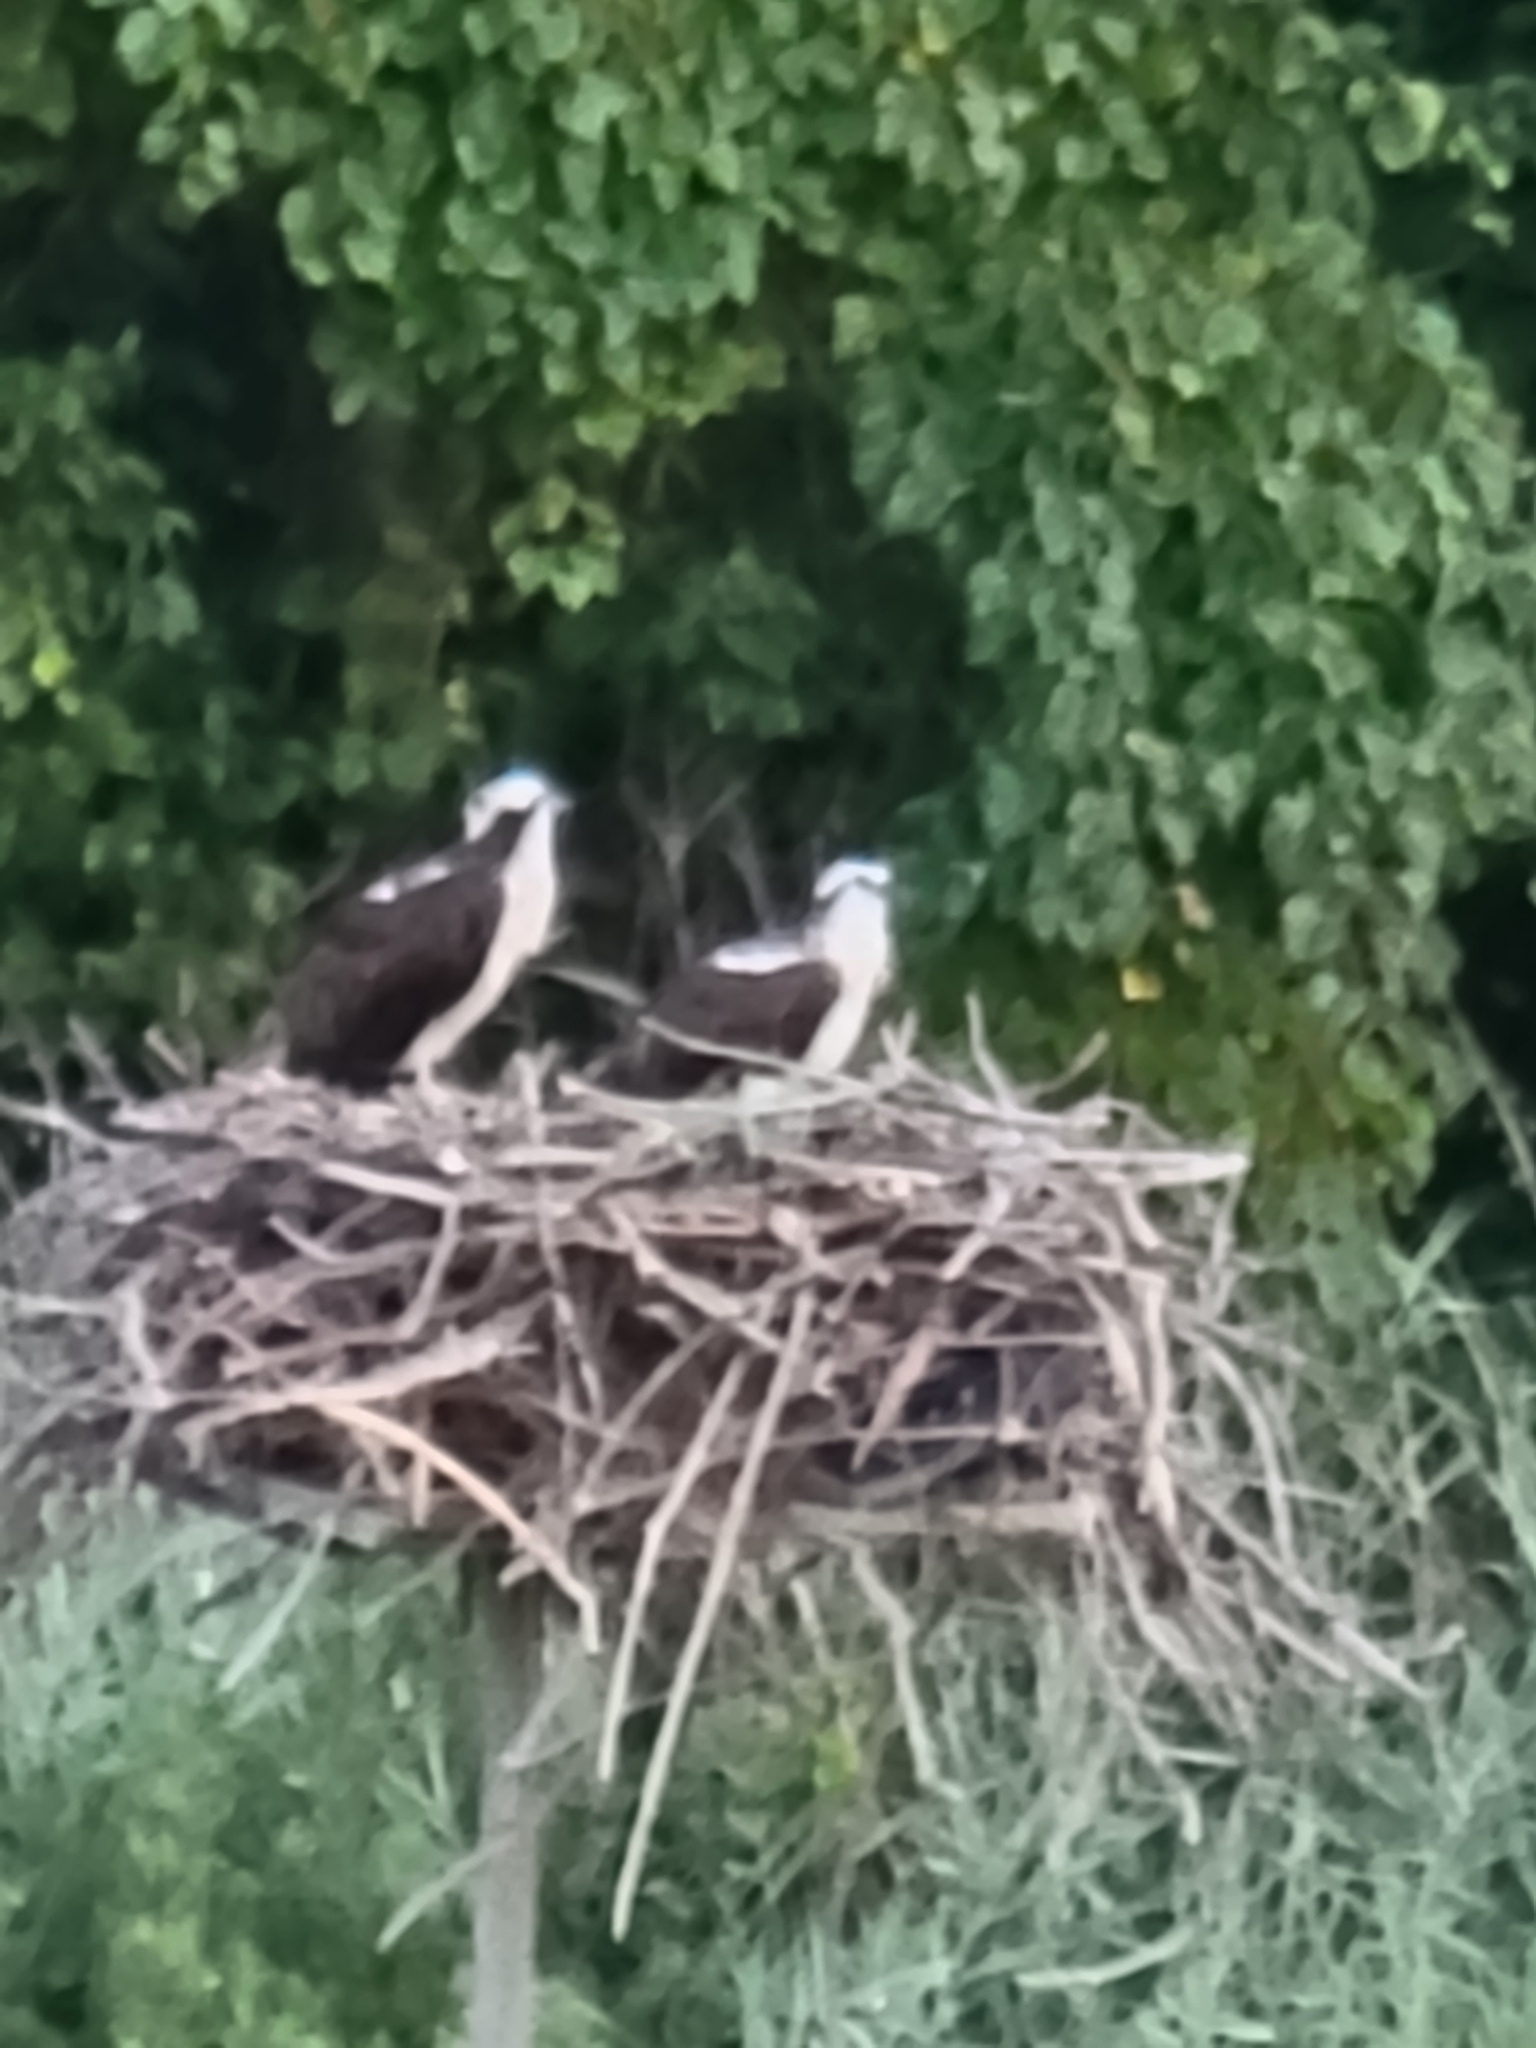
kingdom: Animalia
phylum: Chordata
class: Aves
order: Accipitriformes
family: Pandionidae
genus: Pandion
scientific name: Pandion haliaetus
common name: Osprey
